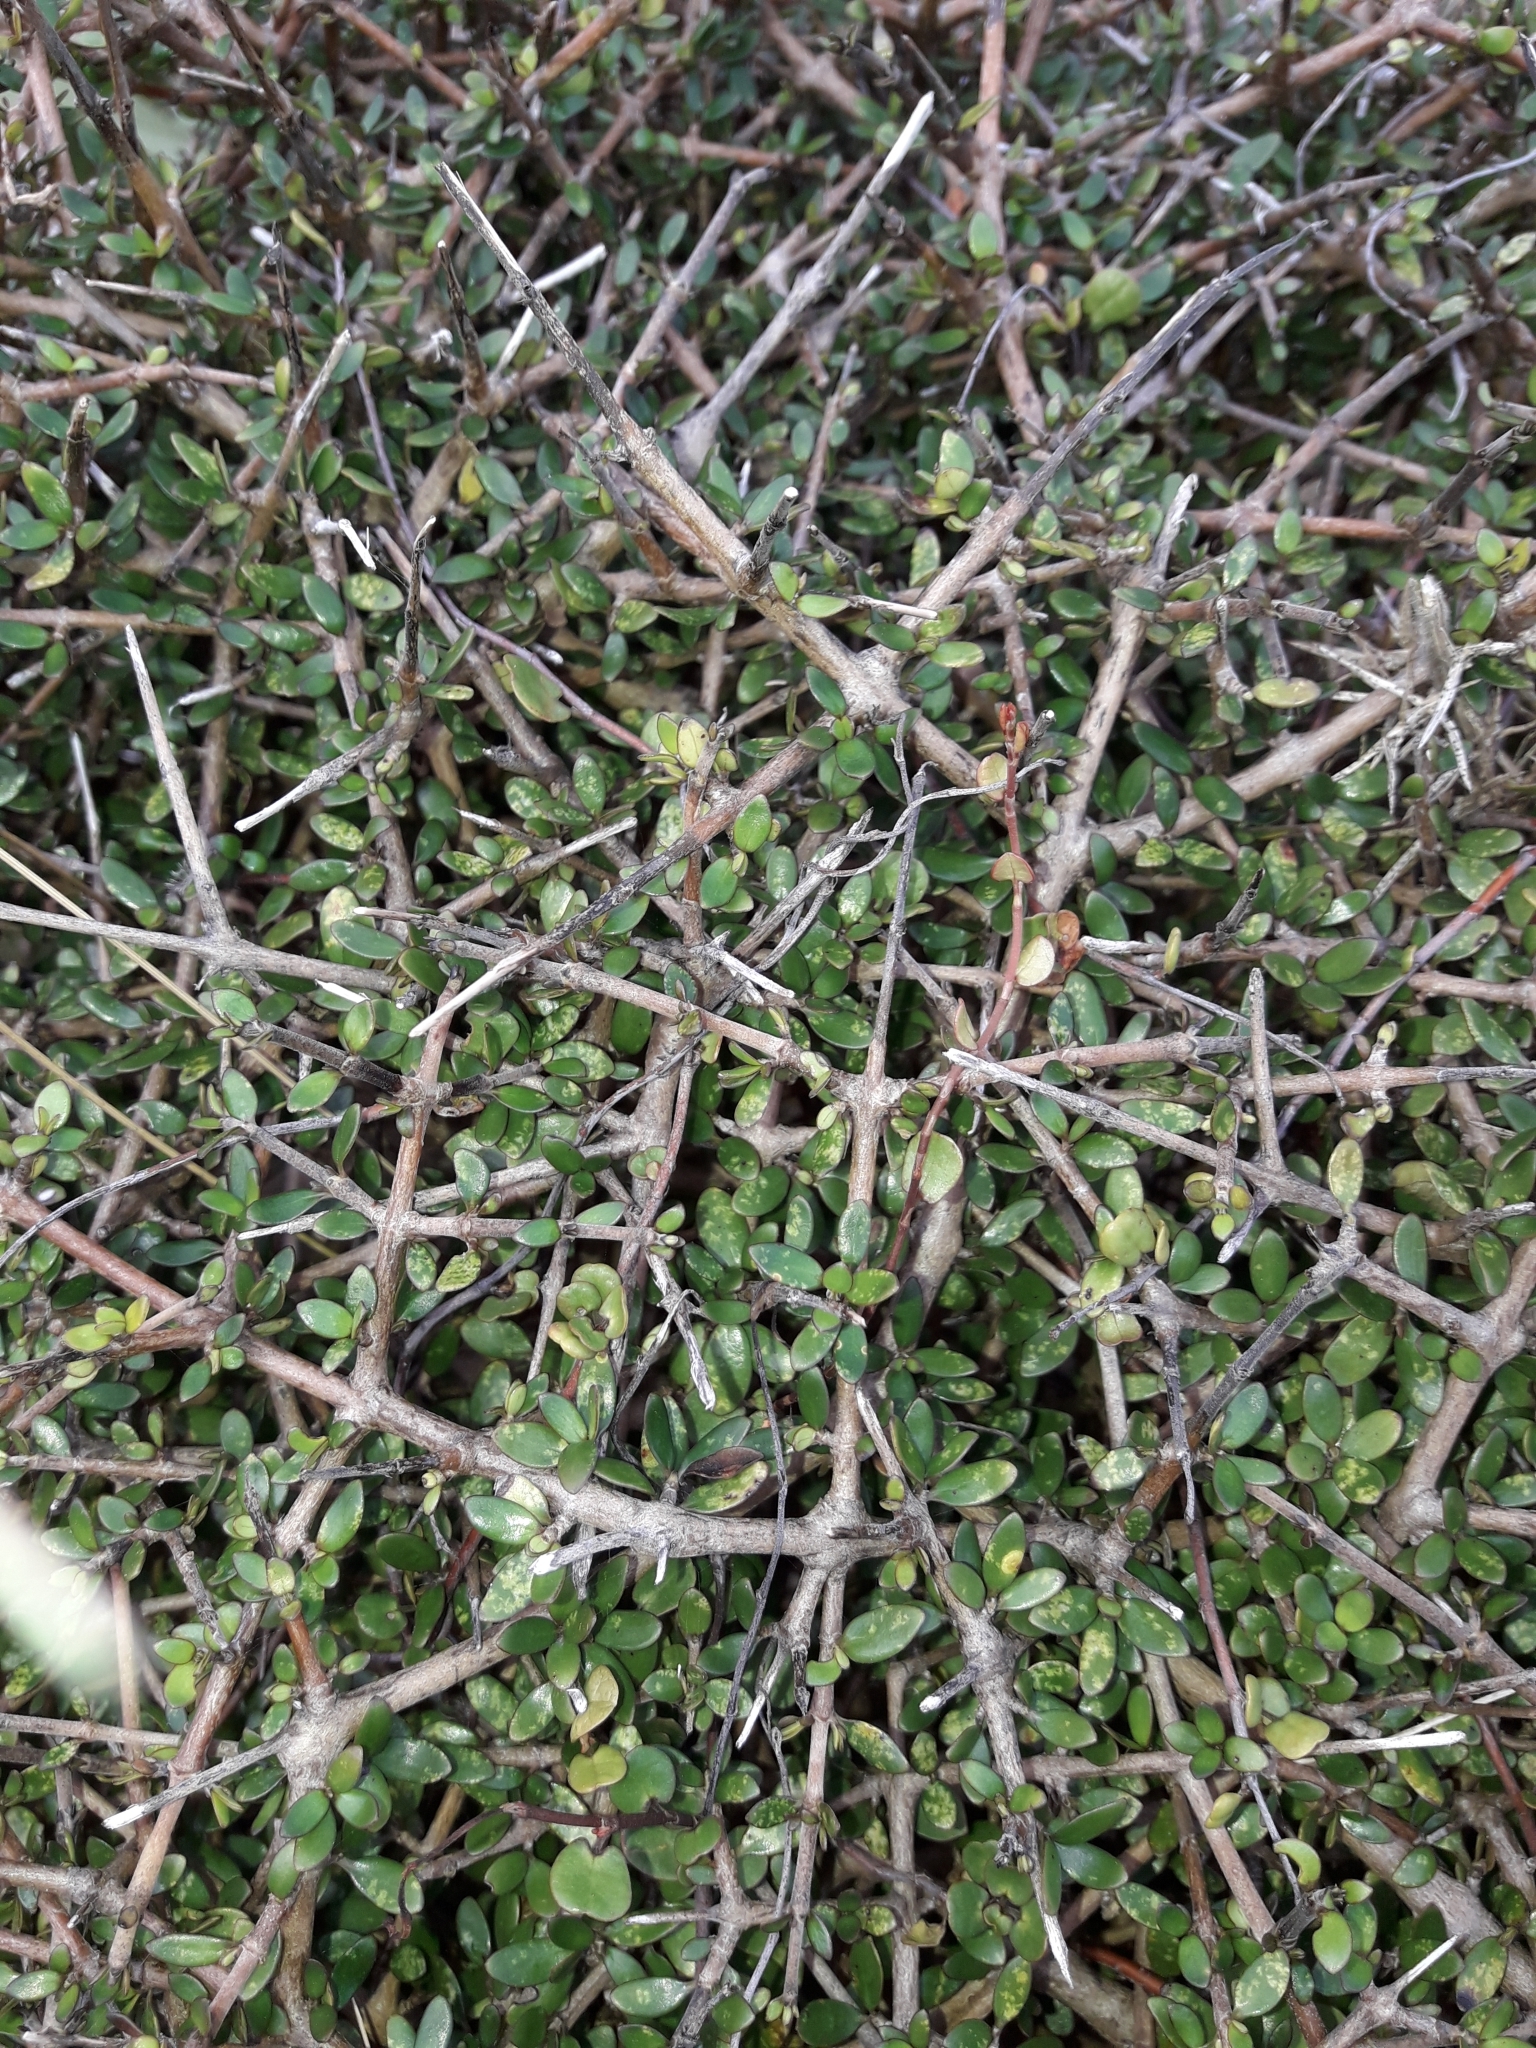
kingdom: Plantae
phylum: Tracheophyta
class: Magnoliopsida
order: Gentianales
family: Rubiaceae
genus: Coprosma
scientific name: Coprosma propinqua
